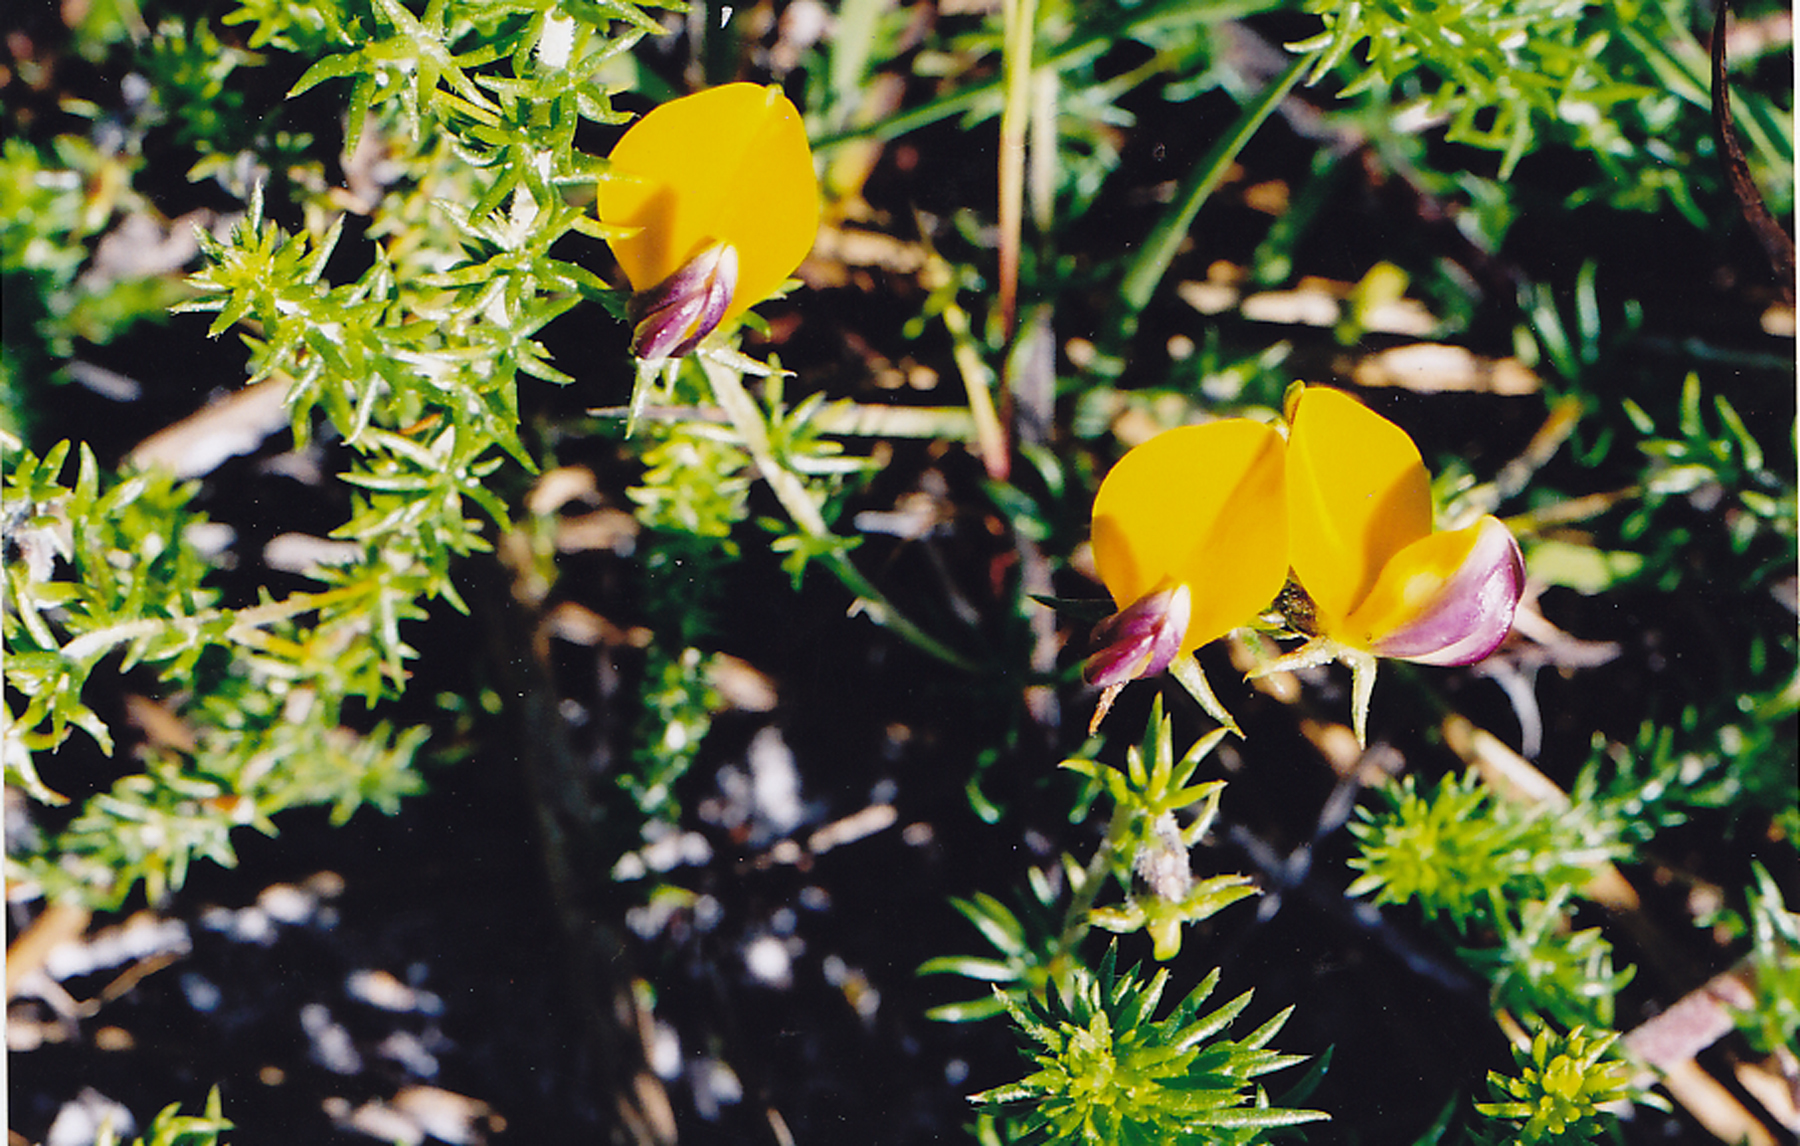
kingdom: Plantae
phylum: Tracheophyta
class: Magnoliopsida
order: Fabales
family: Fabaceae
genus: Aspalathus
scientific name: Aspalathus retroflexa
